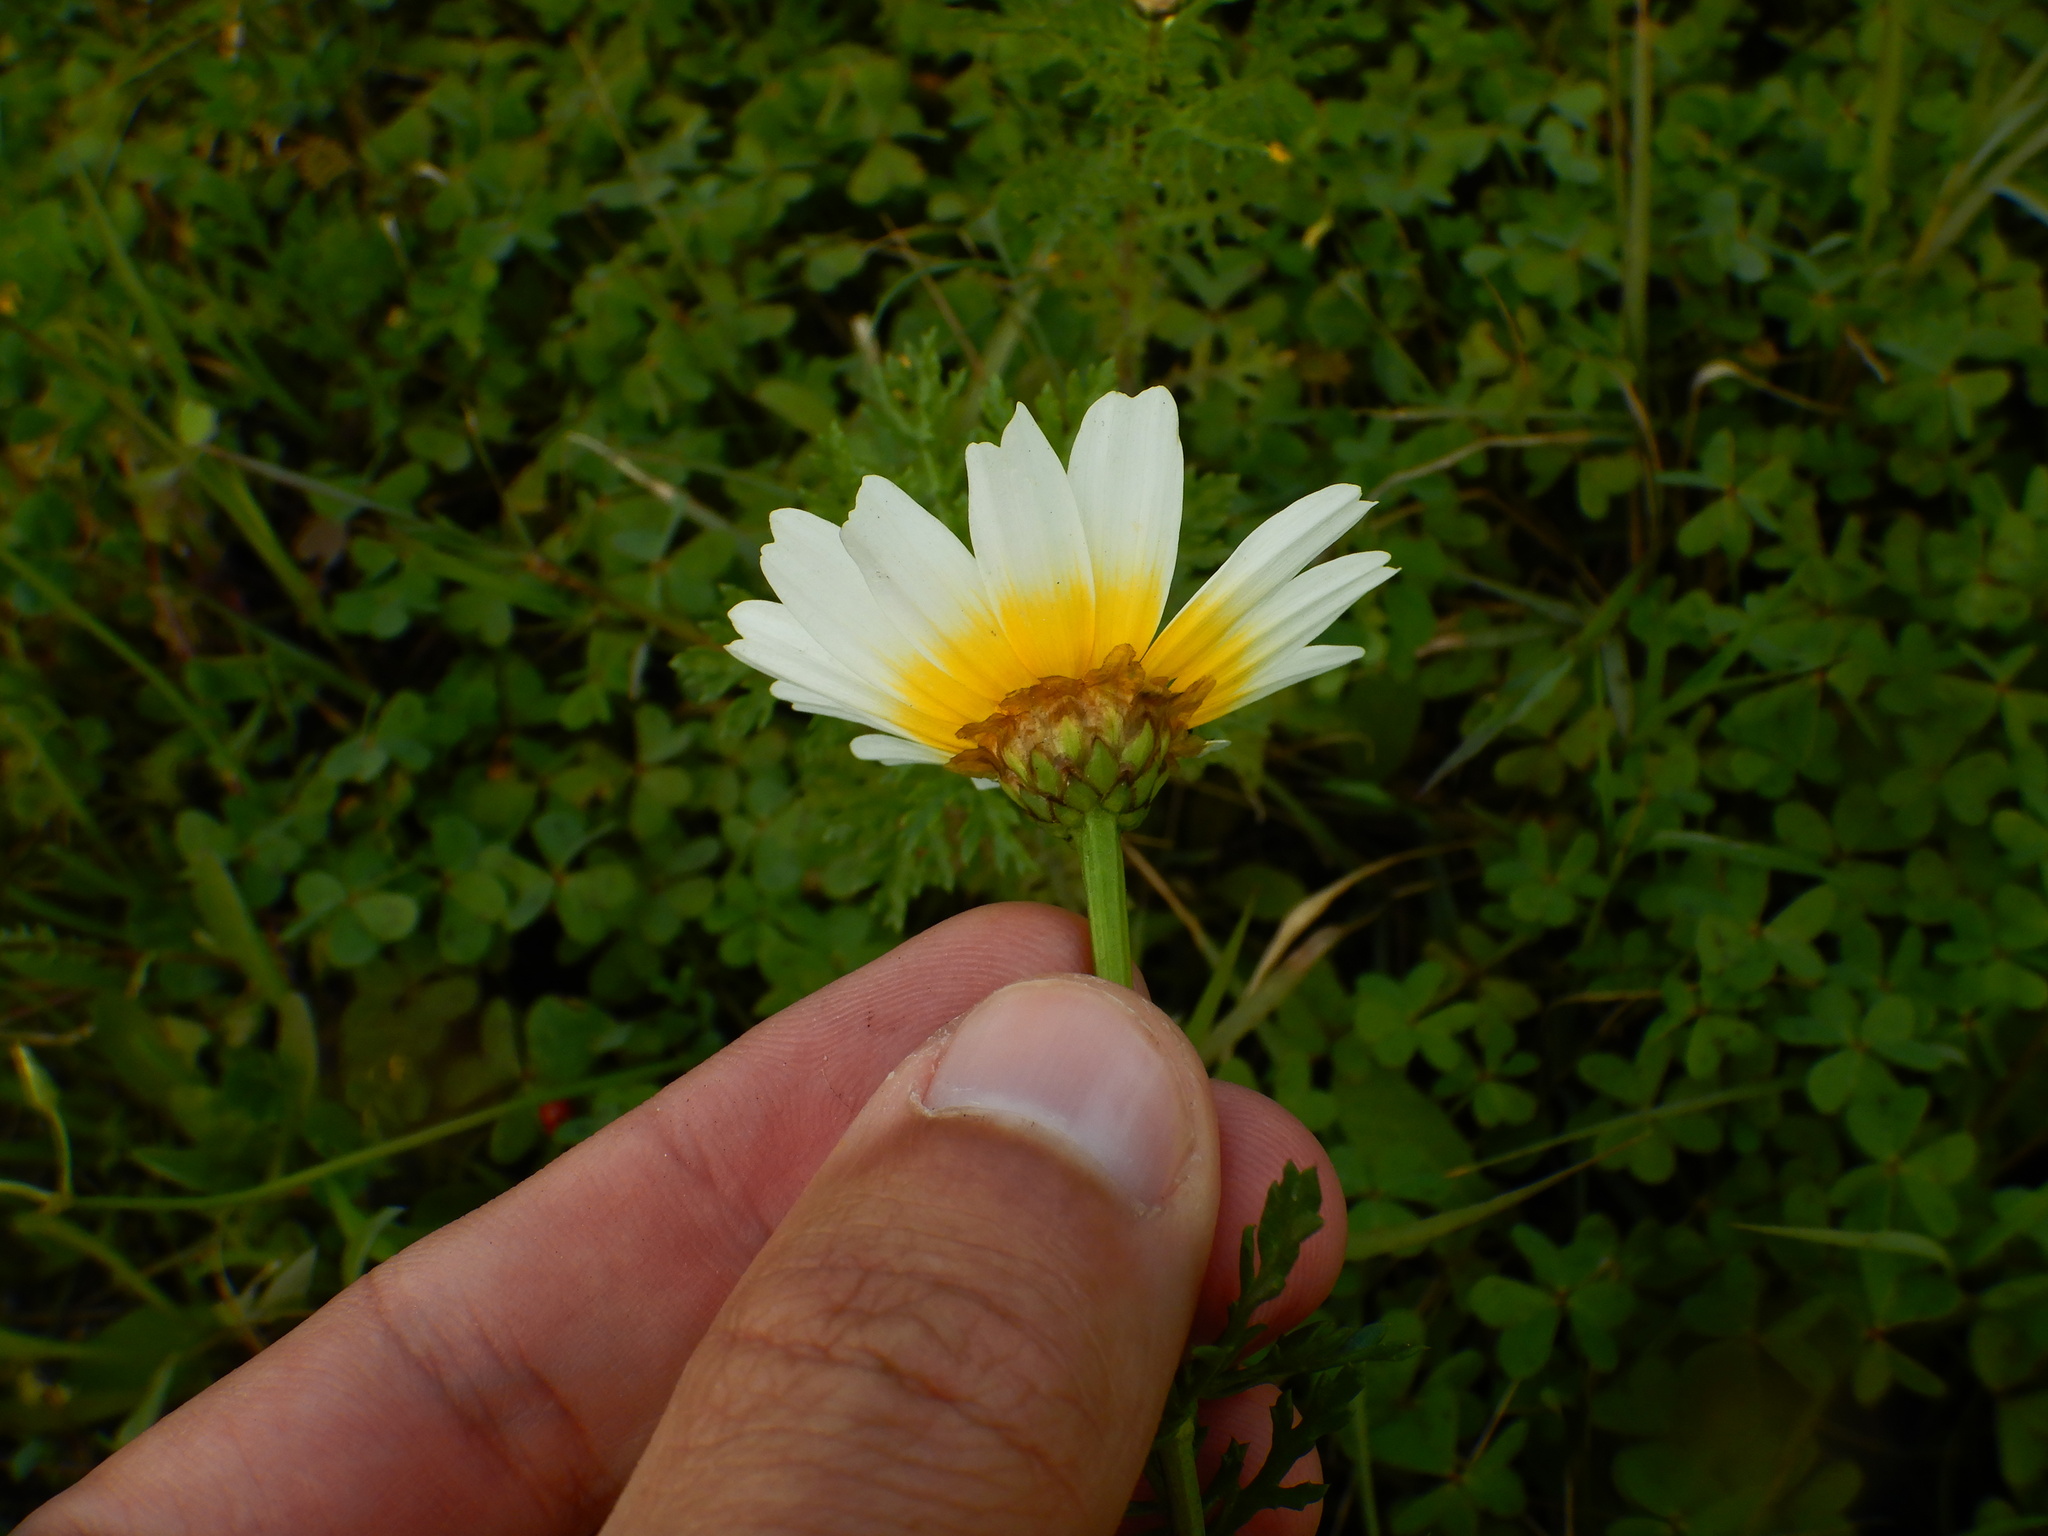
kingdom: Plantae
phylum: Tracheophyta
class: Magnoliopsida
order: Asterales
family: Asteraceae
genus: Glebionis
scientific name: Glebionis coronaria
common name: Crowndaisy
